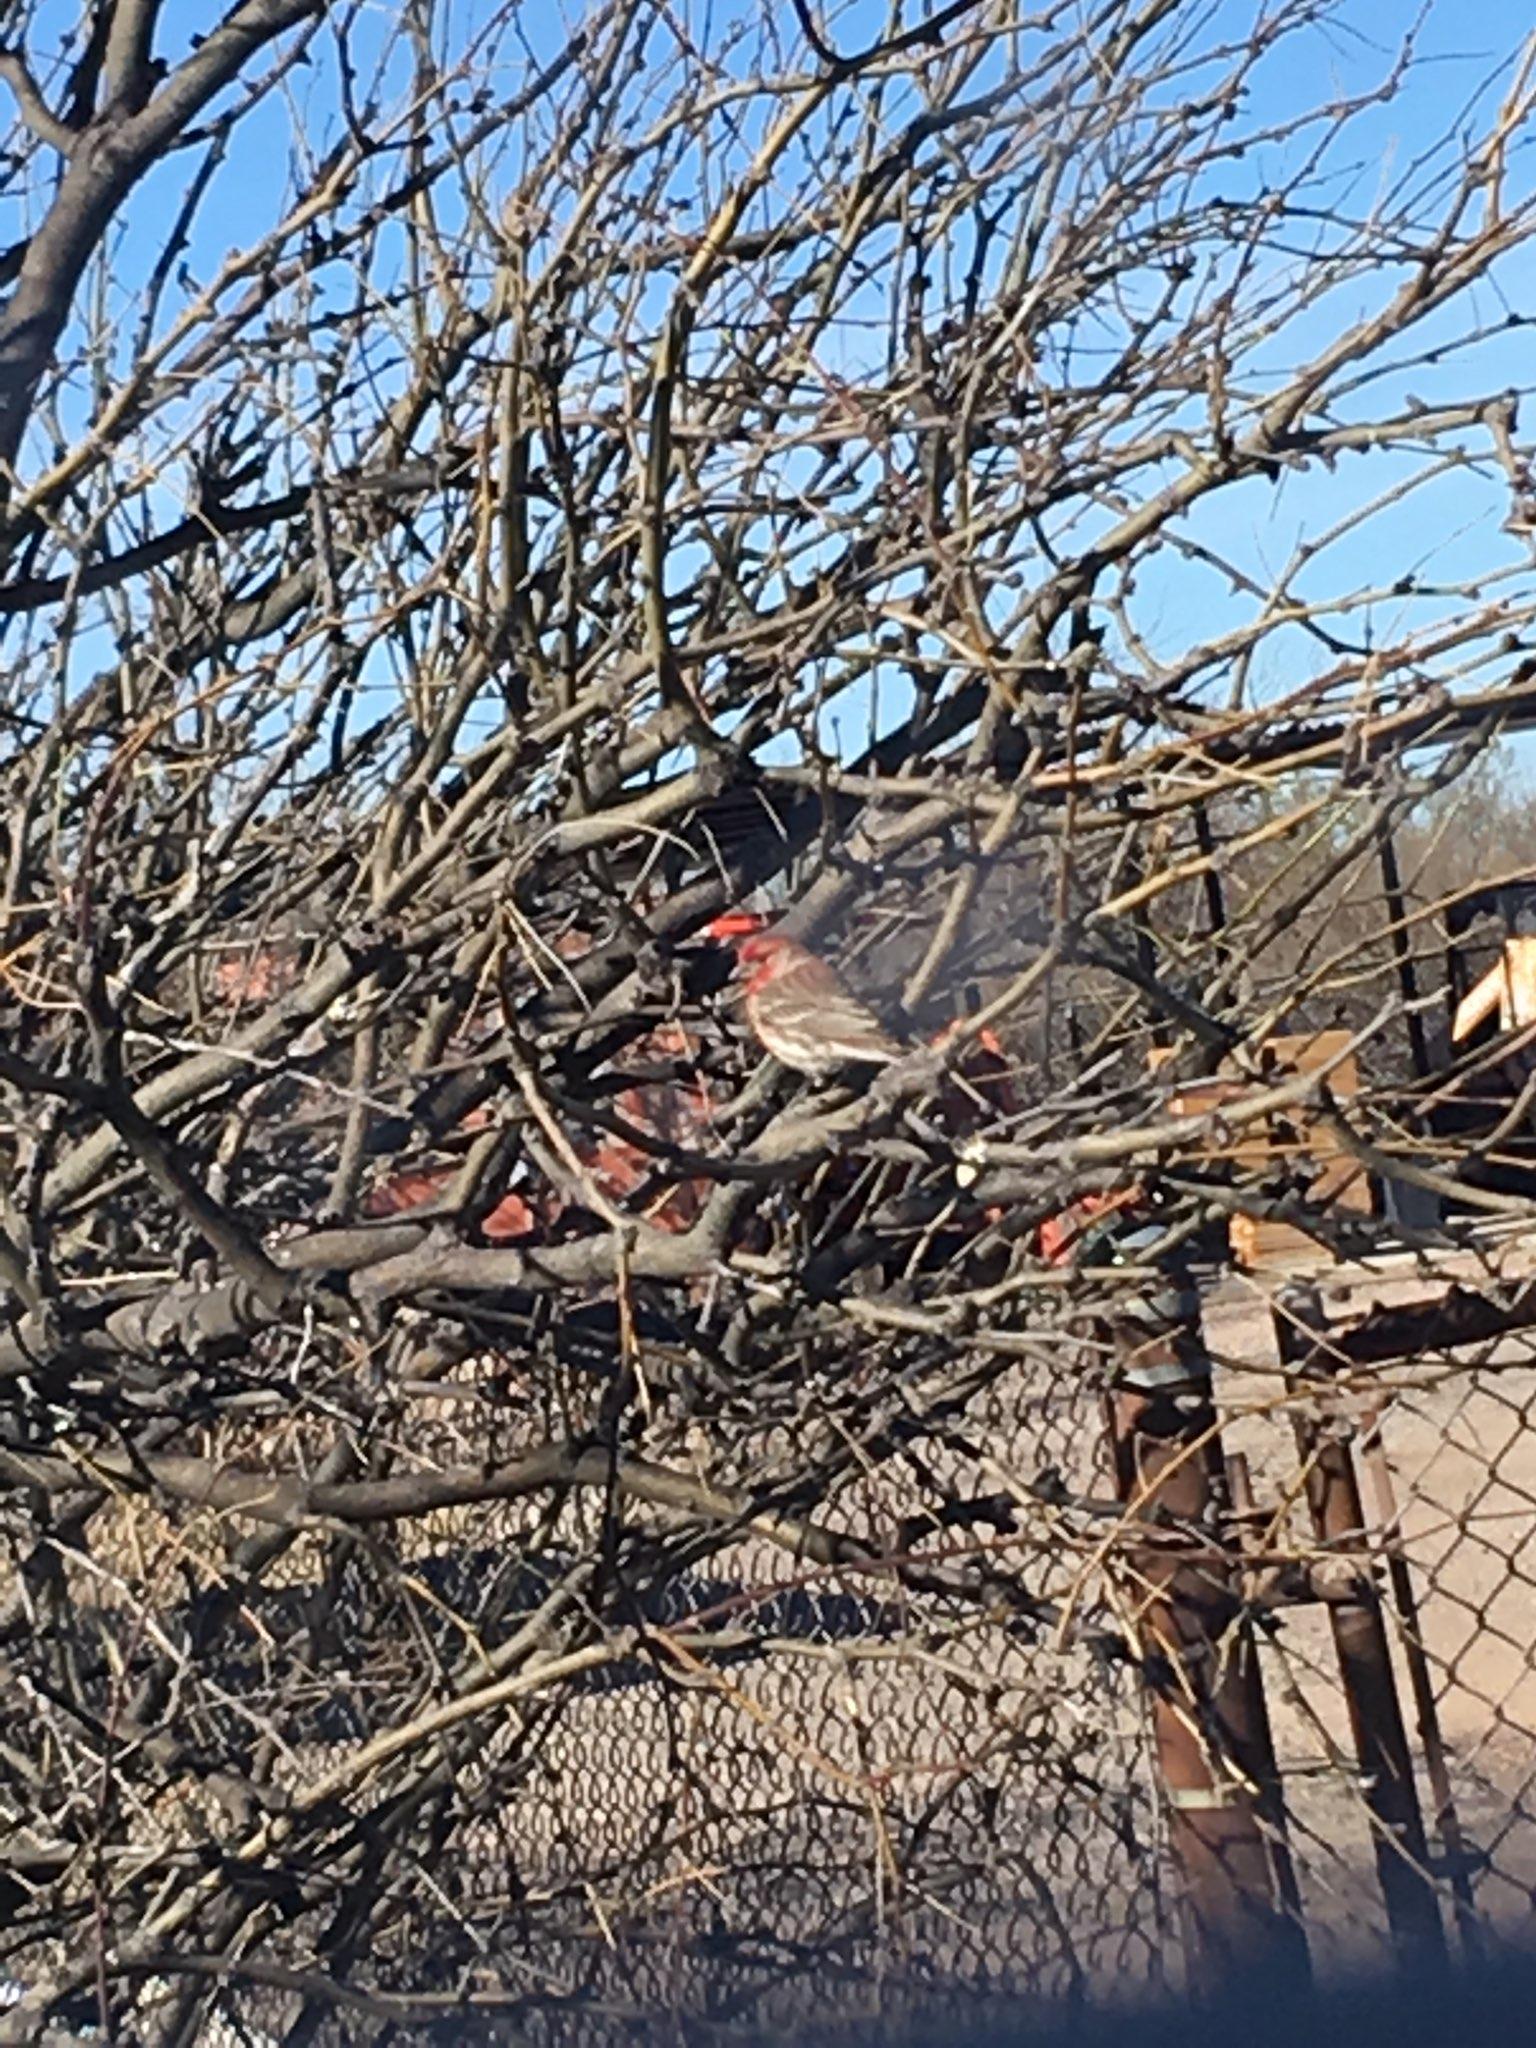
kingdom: Animalia
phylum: Chordata
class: Aves
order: Passeriformes
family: Fringillidae
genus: Haemorhous
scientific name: Haemorhous mexicanus
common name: House finch
